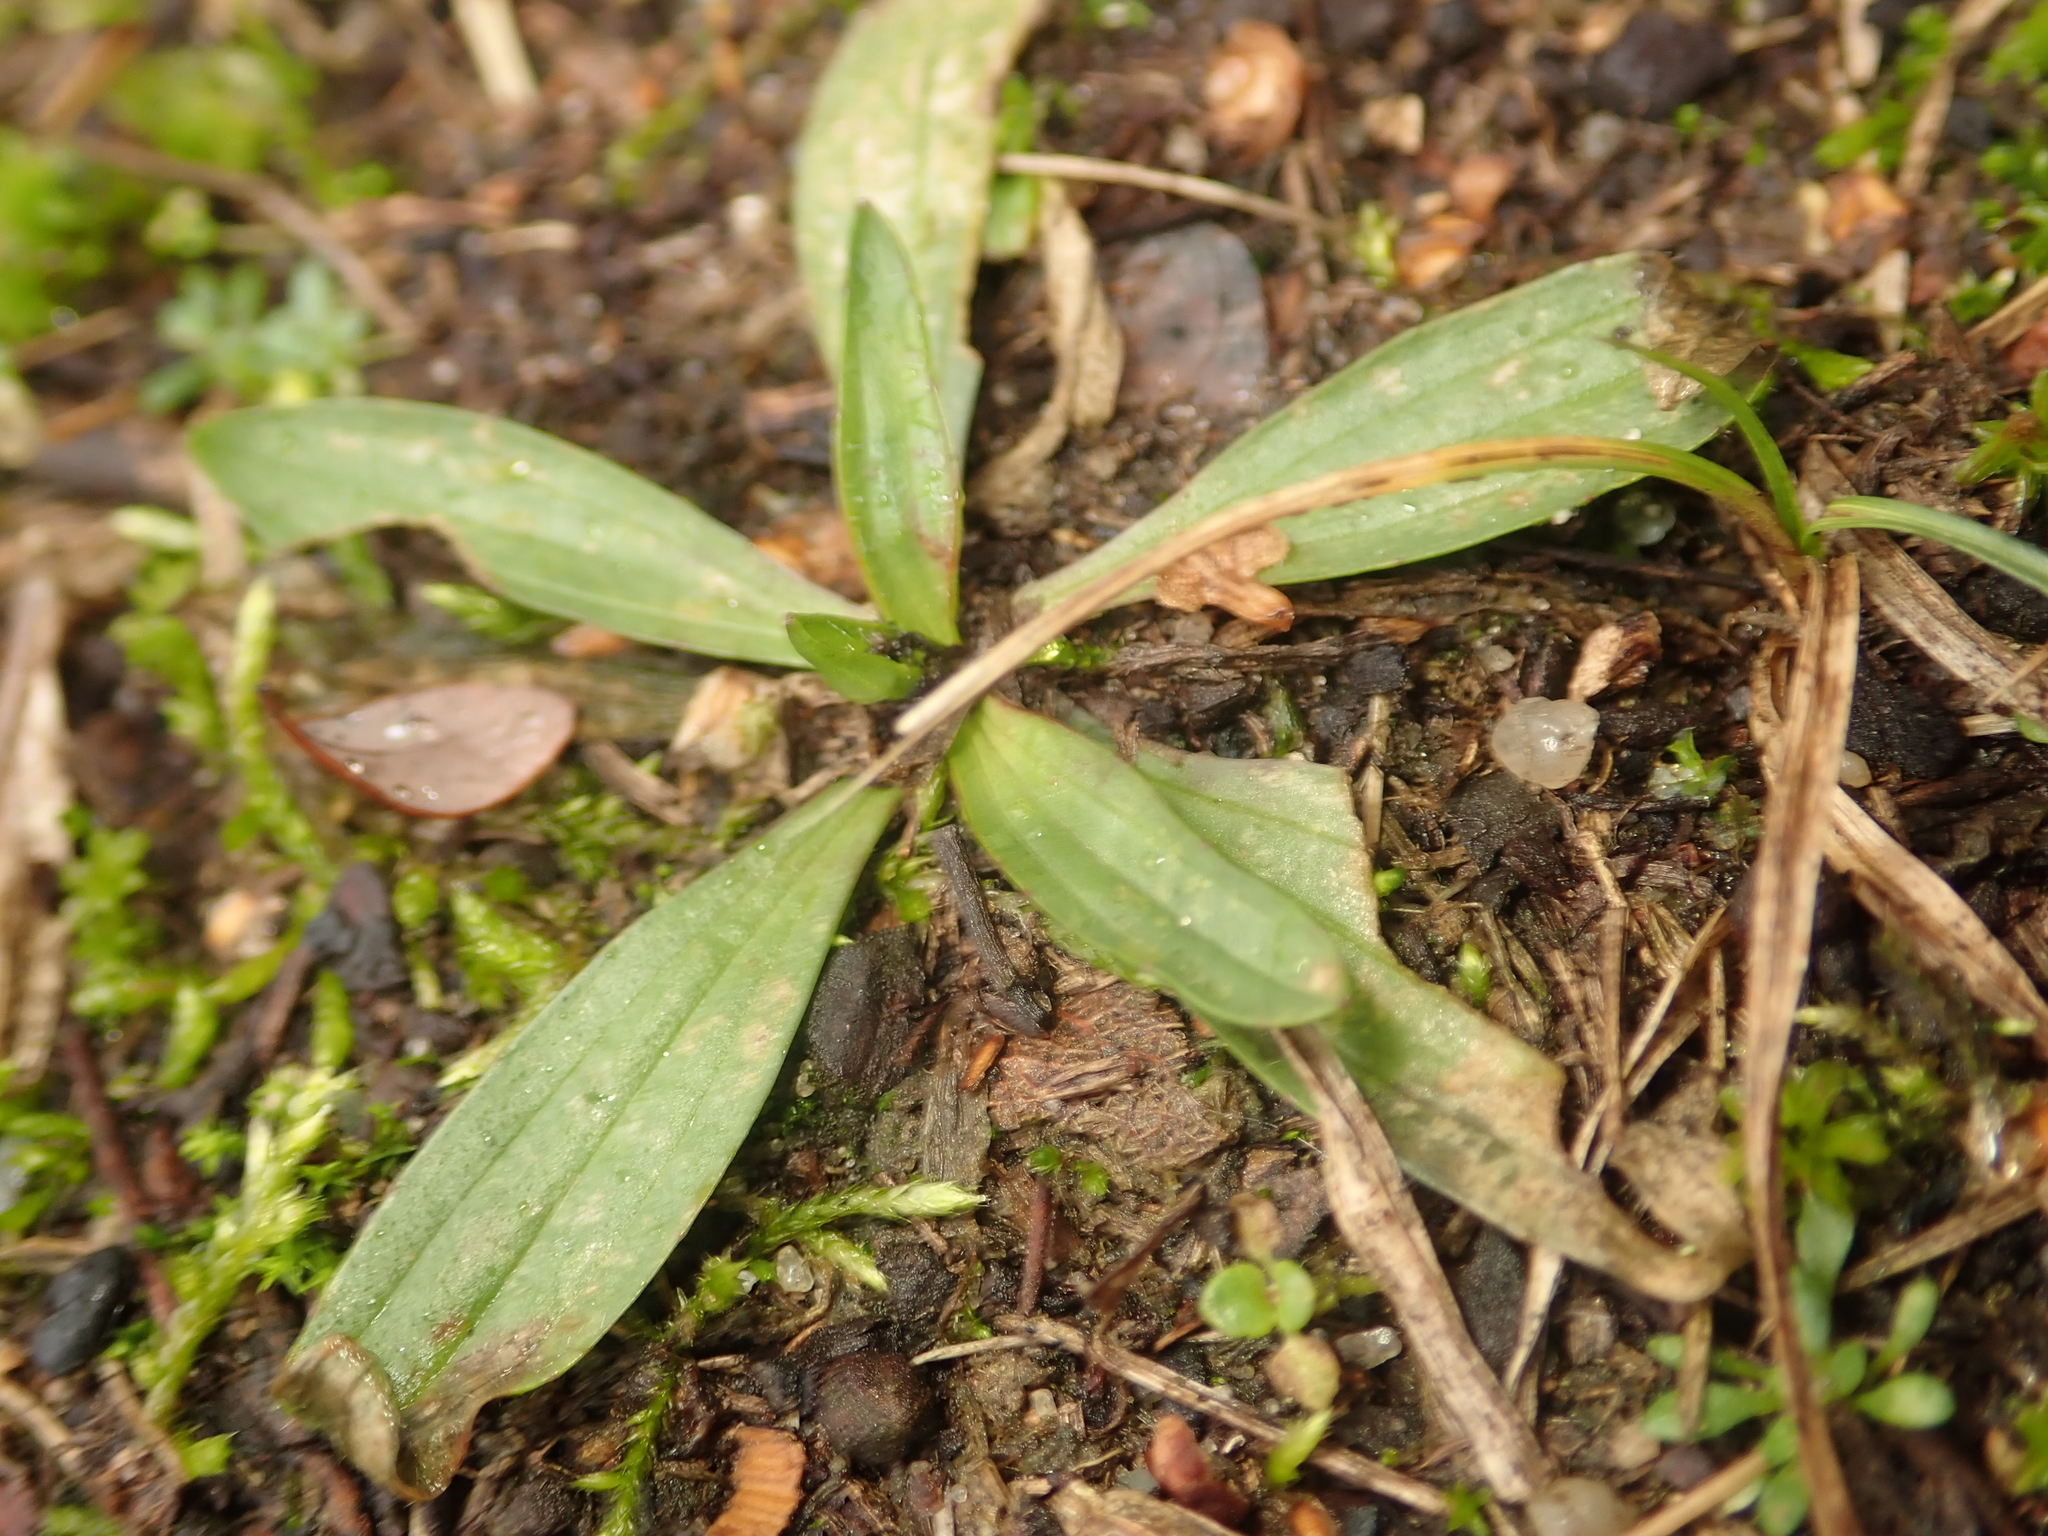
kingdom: Plantae
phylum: Tracheophyta
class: Magnoliopsida
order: Lamiales
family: Plantaginaceae
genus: Plantago
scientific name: Plantago lanceolata
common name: Ribwort plantain
